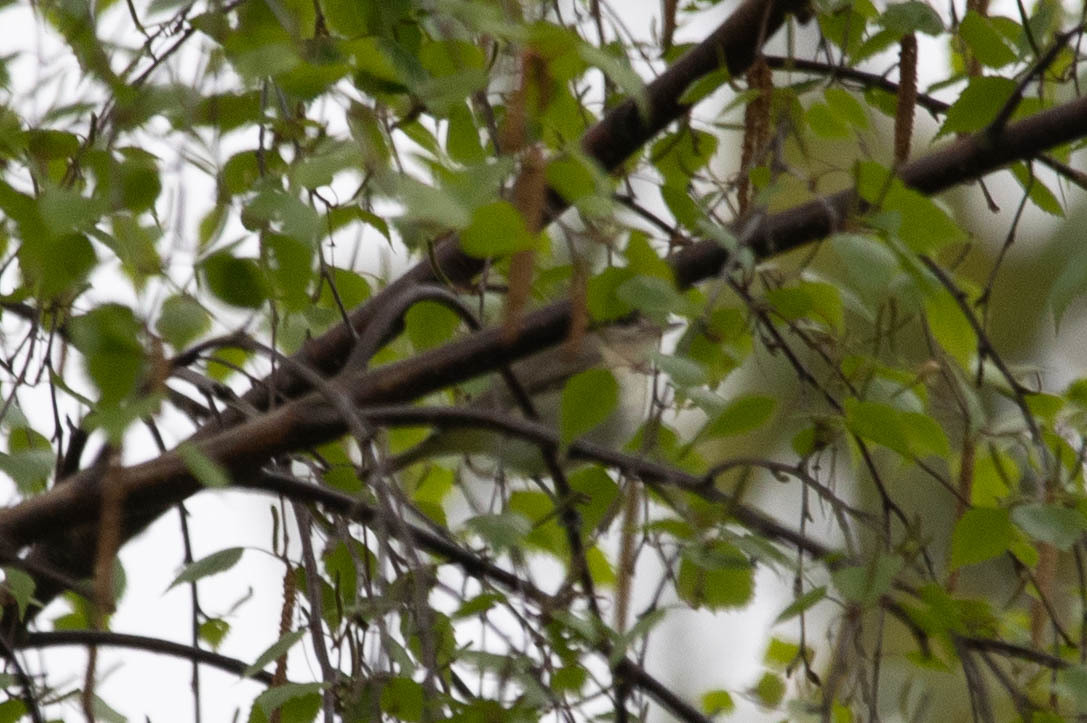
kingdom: Animalia
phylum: Chordata
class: Aves
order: Passeriformes
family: Vireonidae
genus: Vireo
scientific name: Vireo gilvus
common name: Warbling vireo
